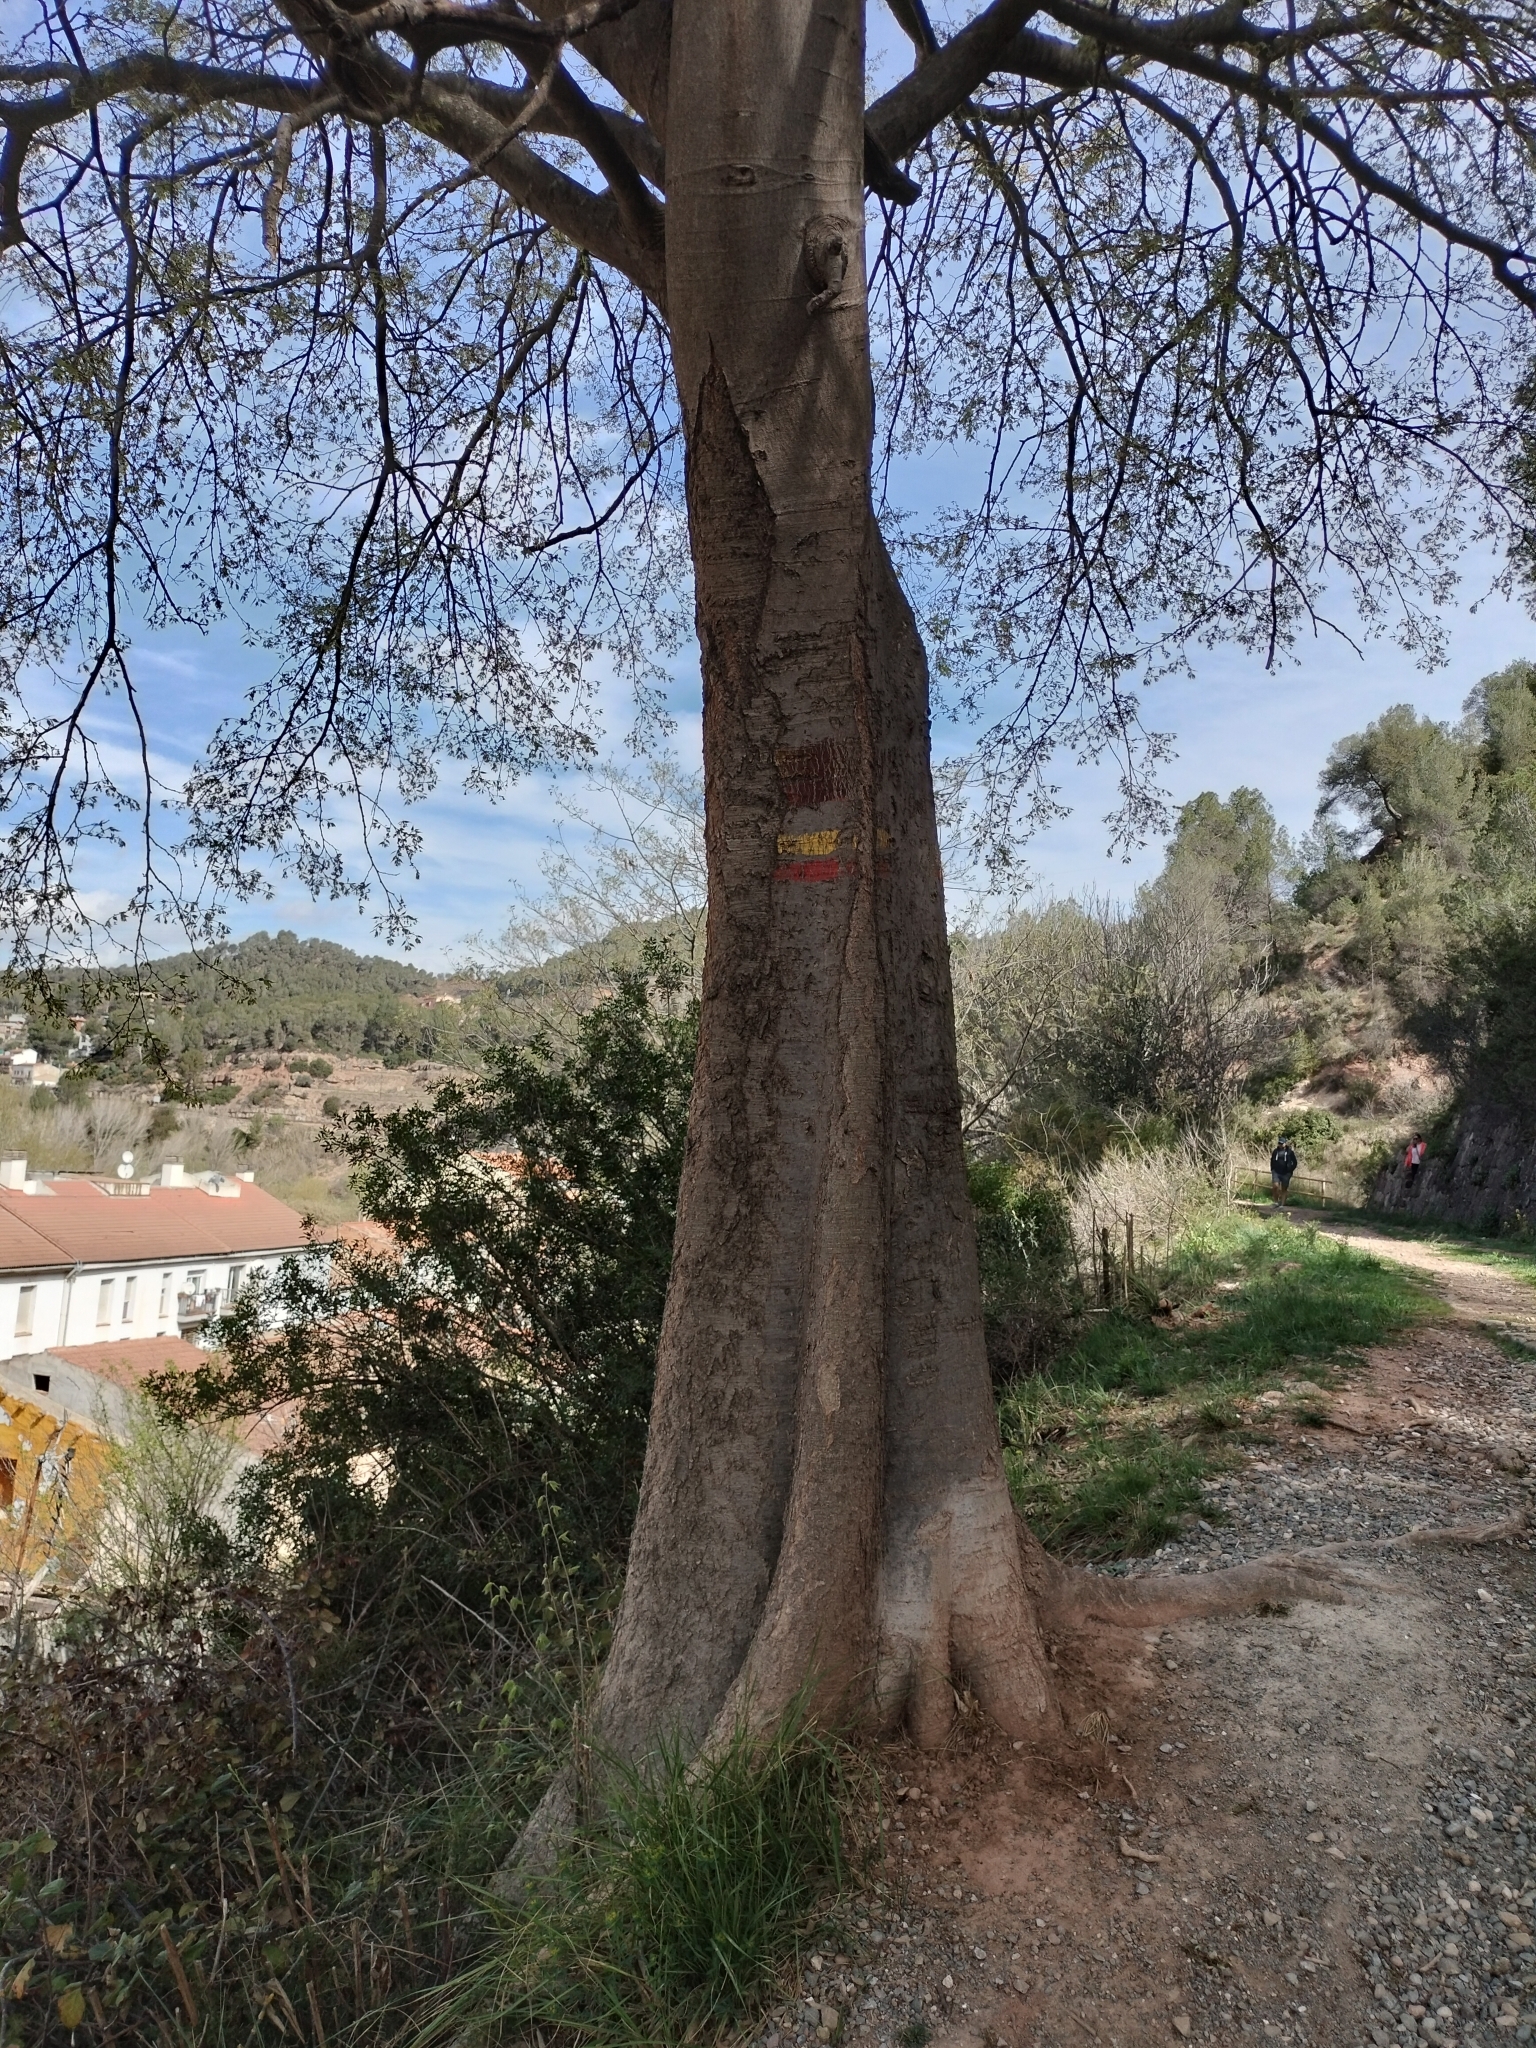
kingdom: Plantae
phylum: Tracheophyta
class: Magnoliopsida
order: Rosales
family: Cannabaceae
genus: Celtis
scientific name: Celtis australis
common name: European hackberry
